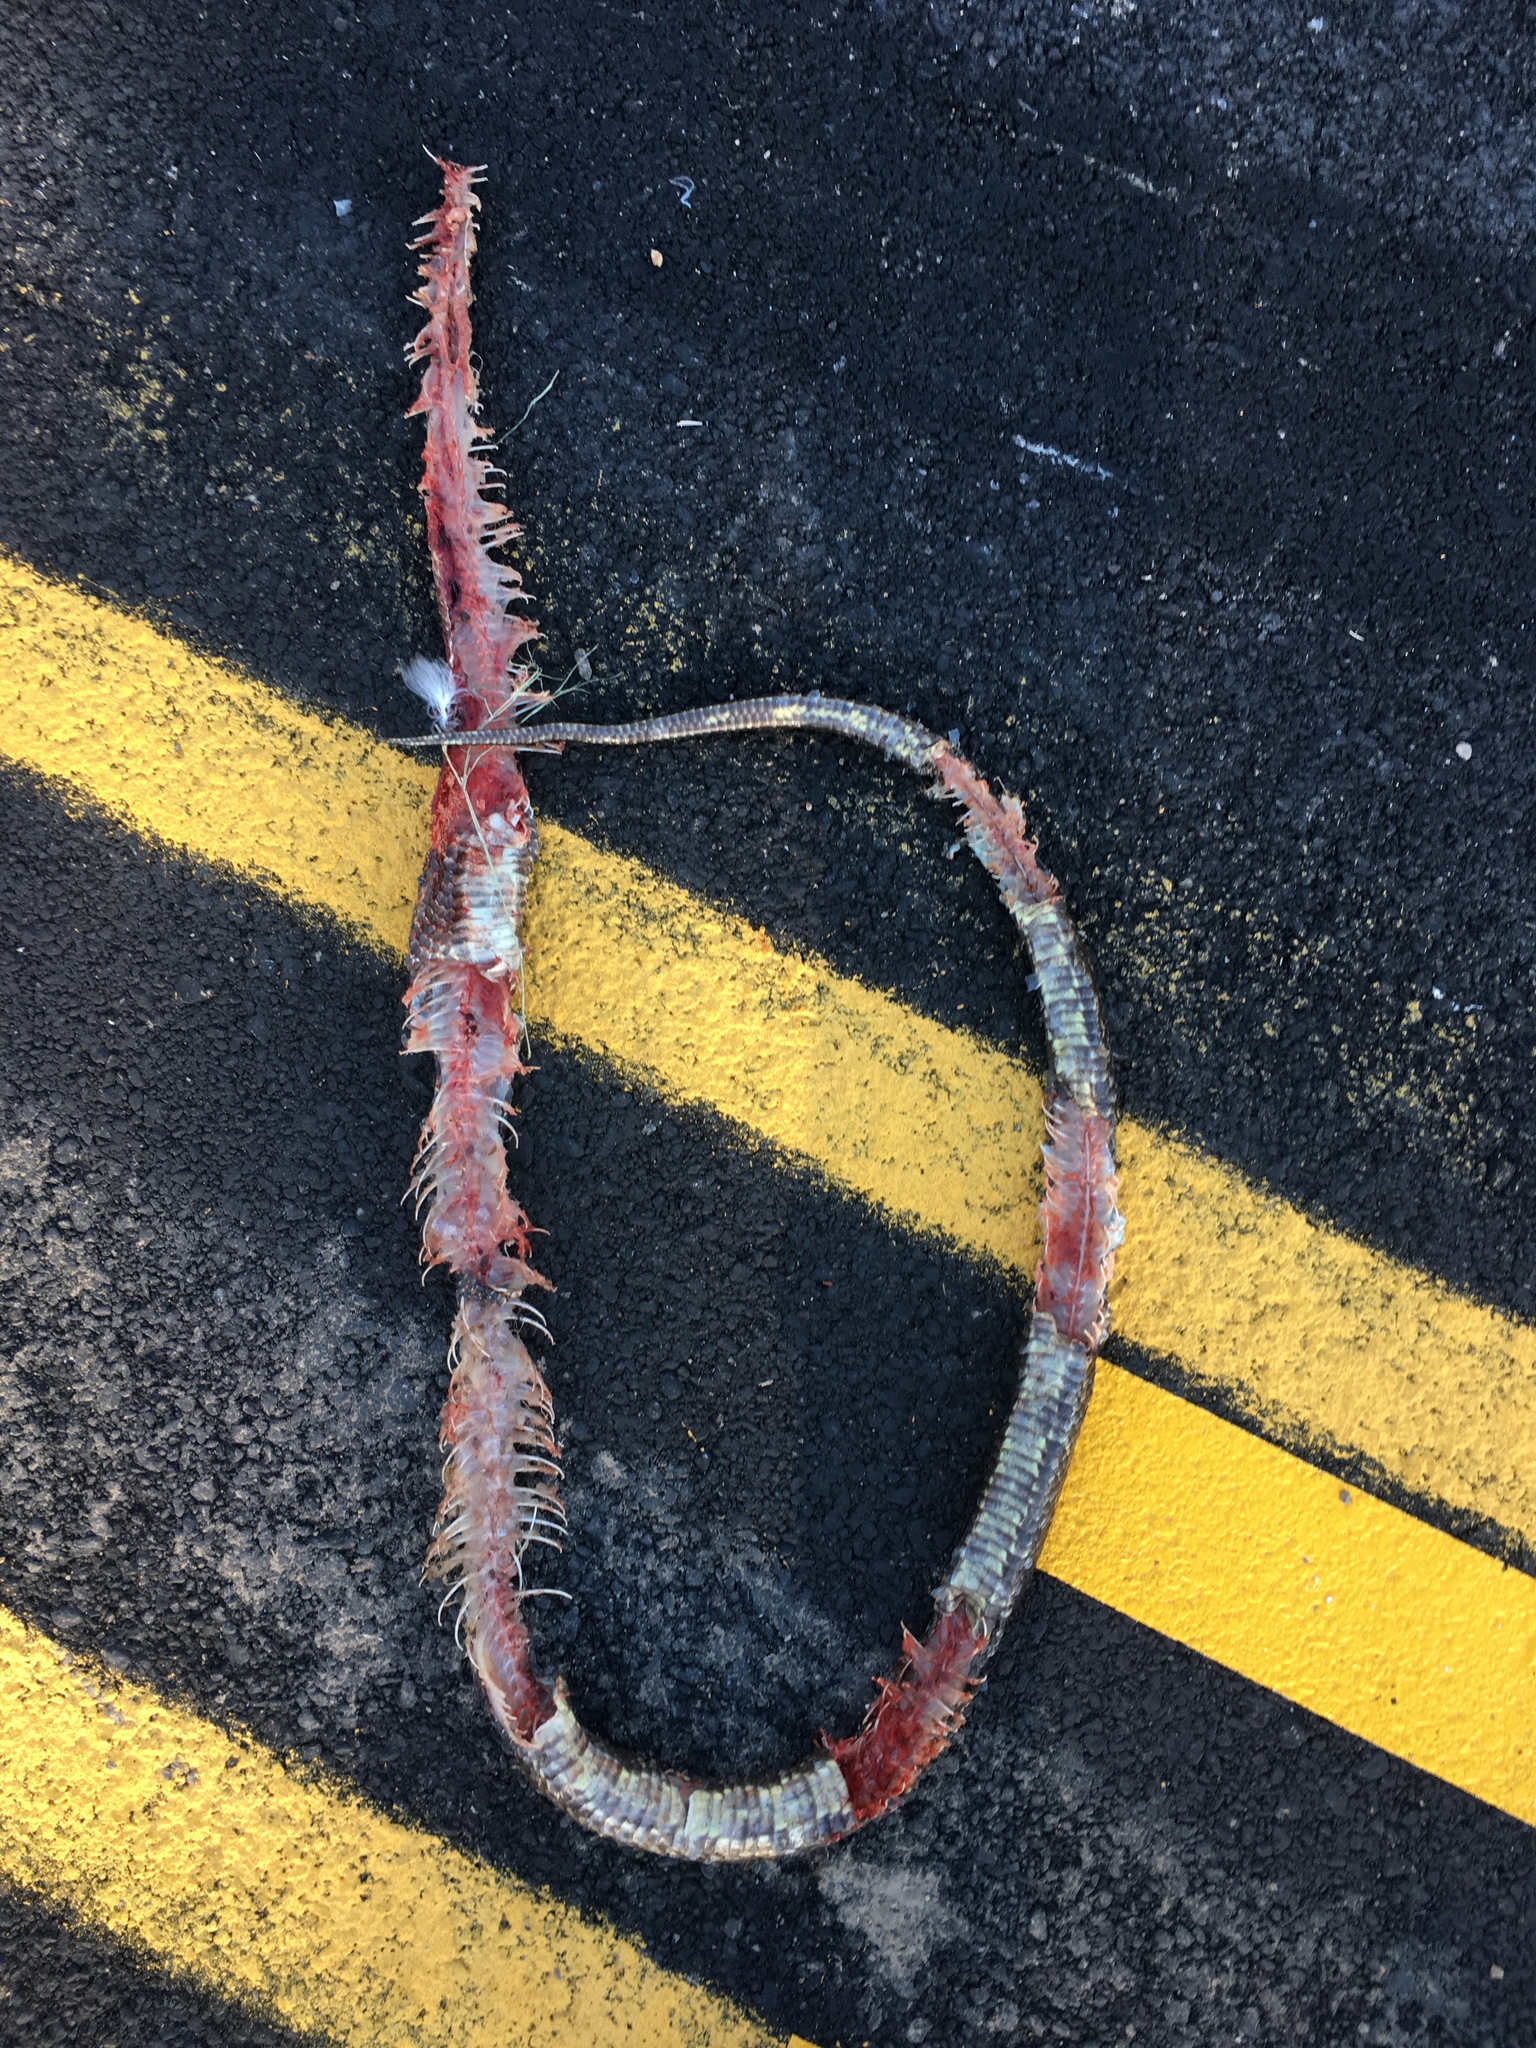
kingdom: Animalia
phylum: Chordata
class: Squamata
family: Colubridae
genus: Pantherophis
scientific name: Pantherophis obsoletus
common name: Black rat snake
